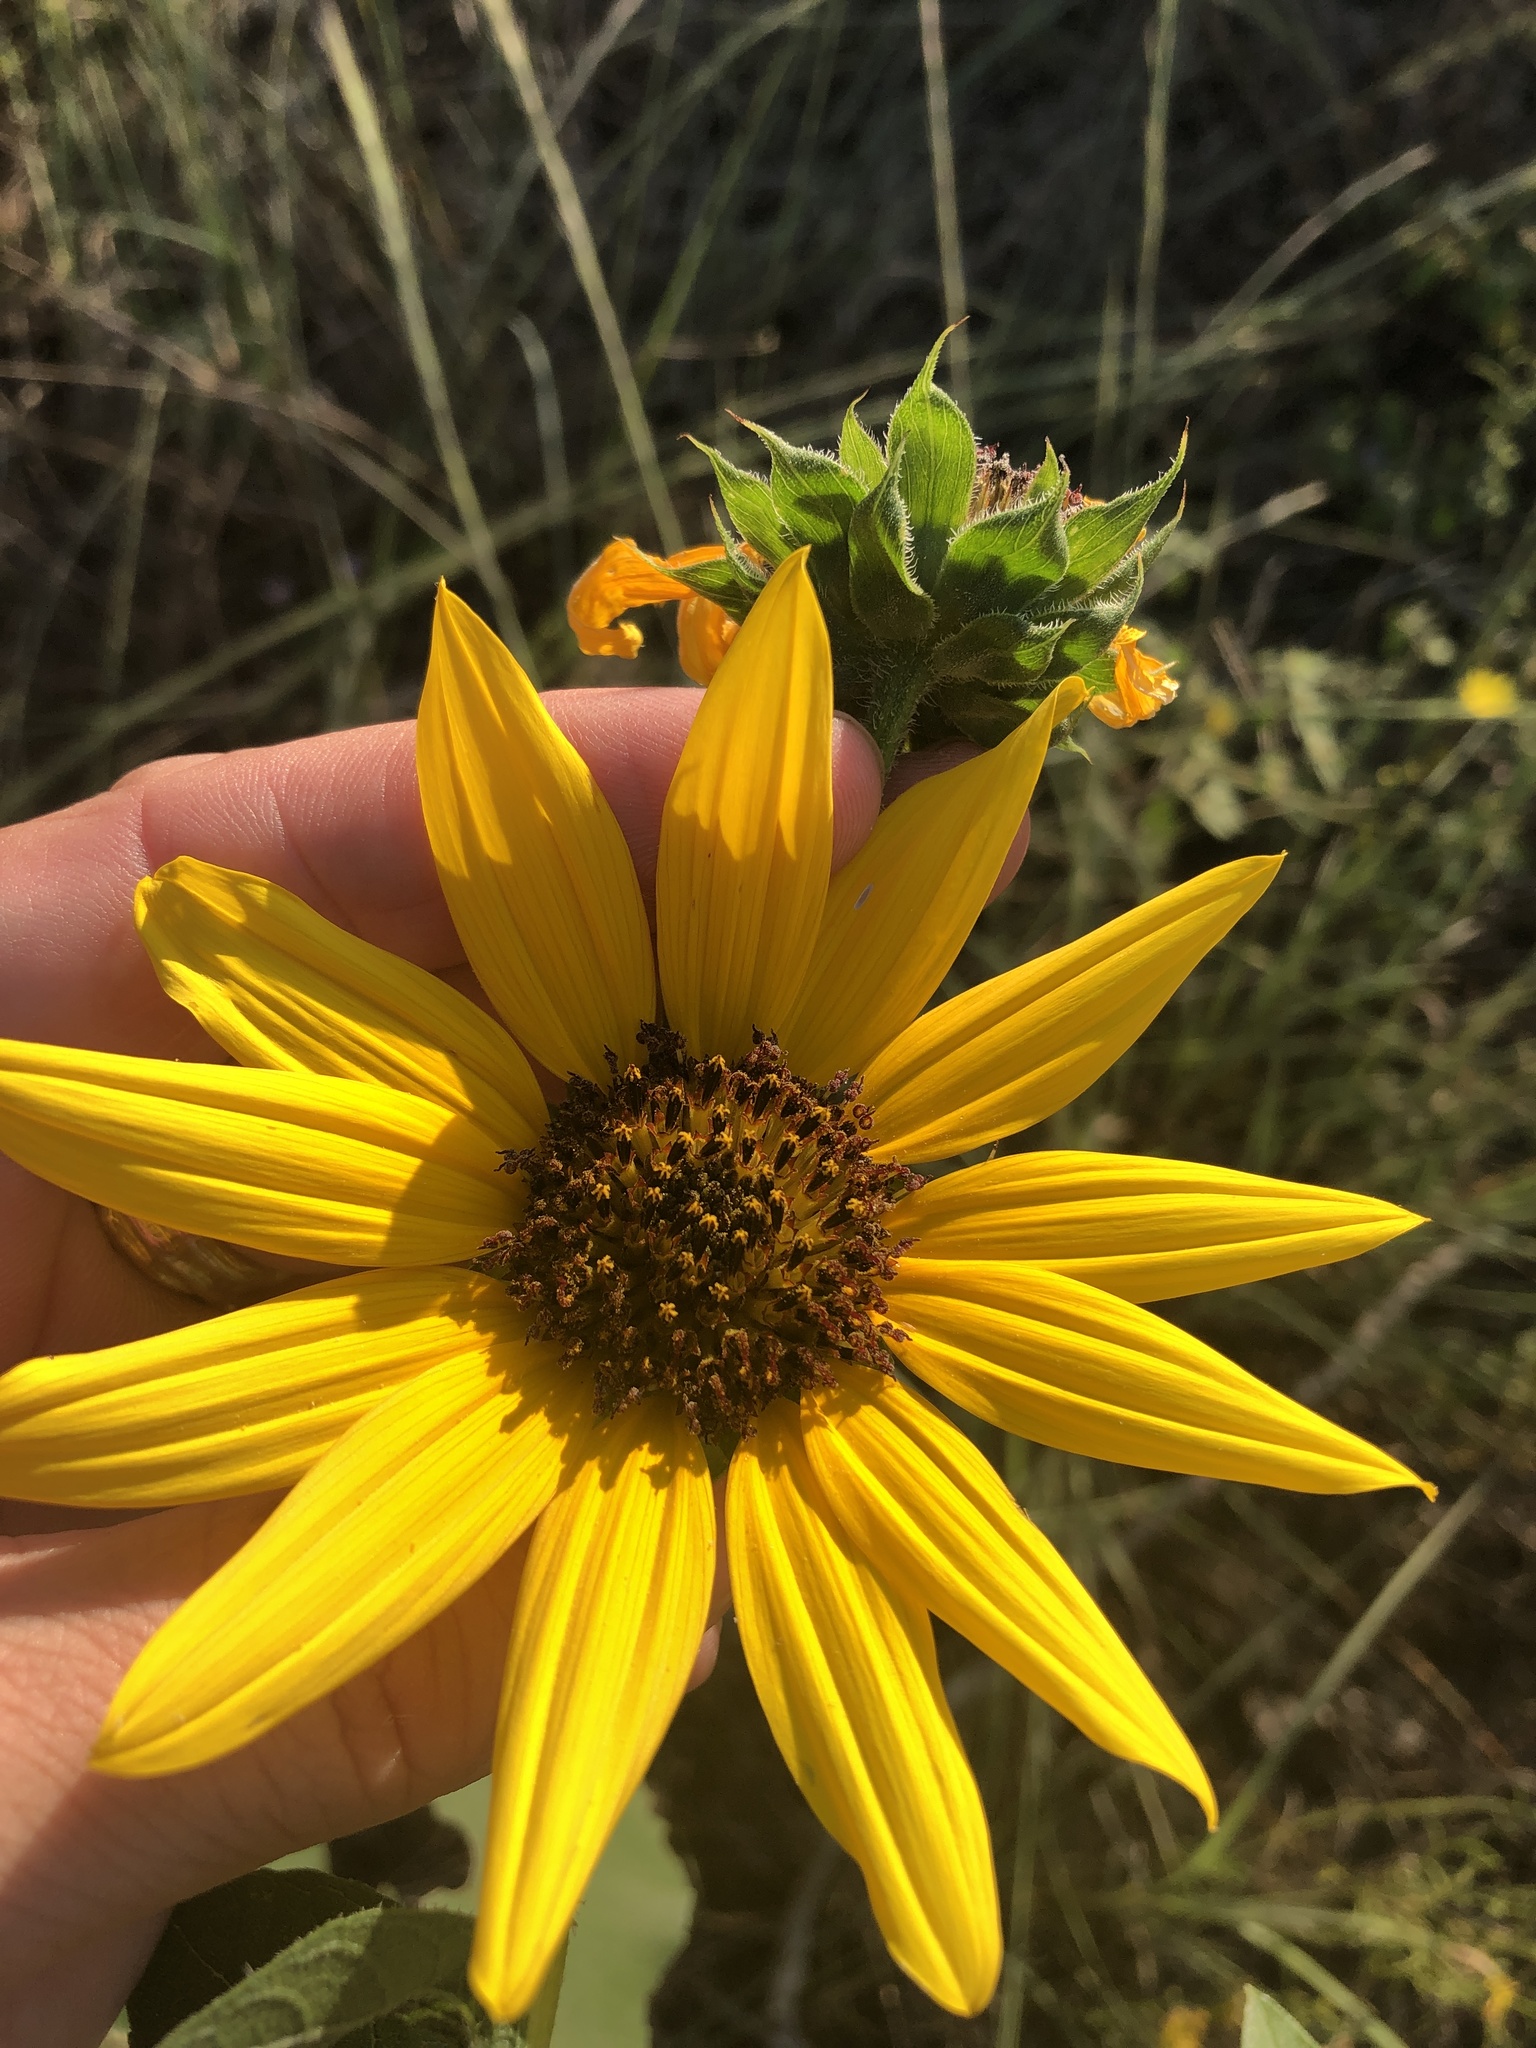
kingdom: Plantae
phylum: Tracheophyta
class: Magnoliopsida
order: Asterales
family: Asteraceae
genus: Helianthus
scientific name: Helianthus annuus
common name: Sunflower
